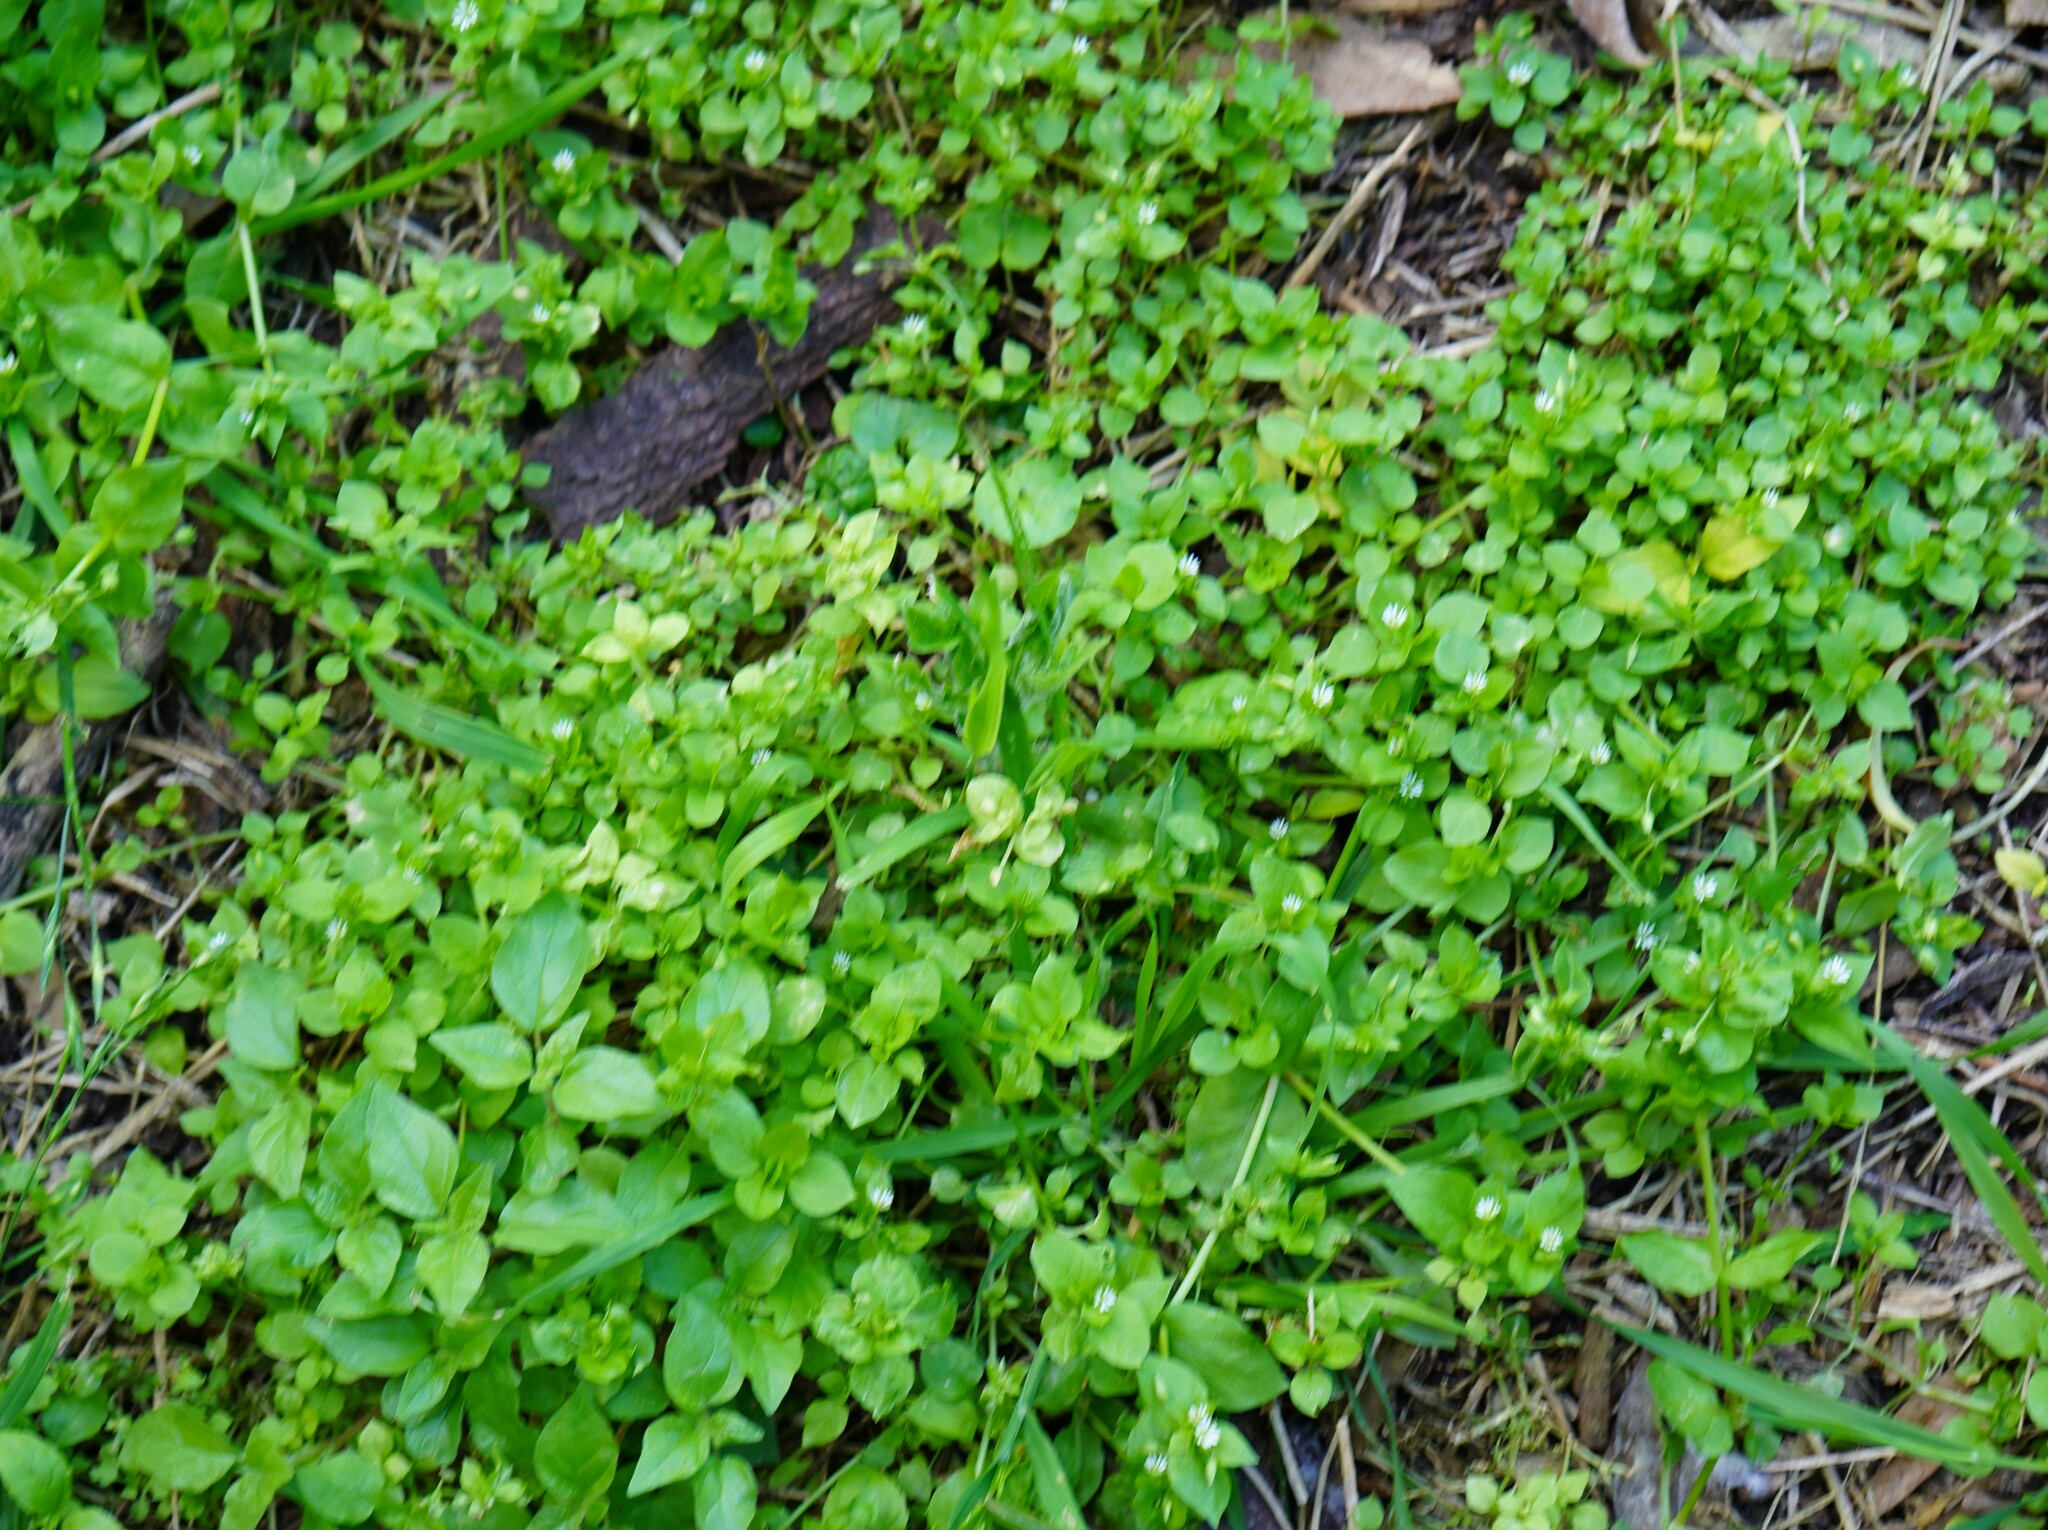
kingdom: Plantae
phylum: Tracheophyta
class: Magnoliopsida
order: Caryophyllales
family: Caryophyllaceae
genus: Stellaria
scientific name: Stellaria media
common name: Common chickweed
